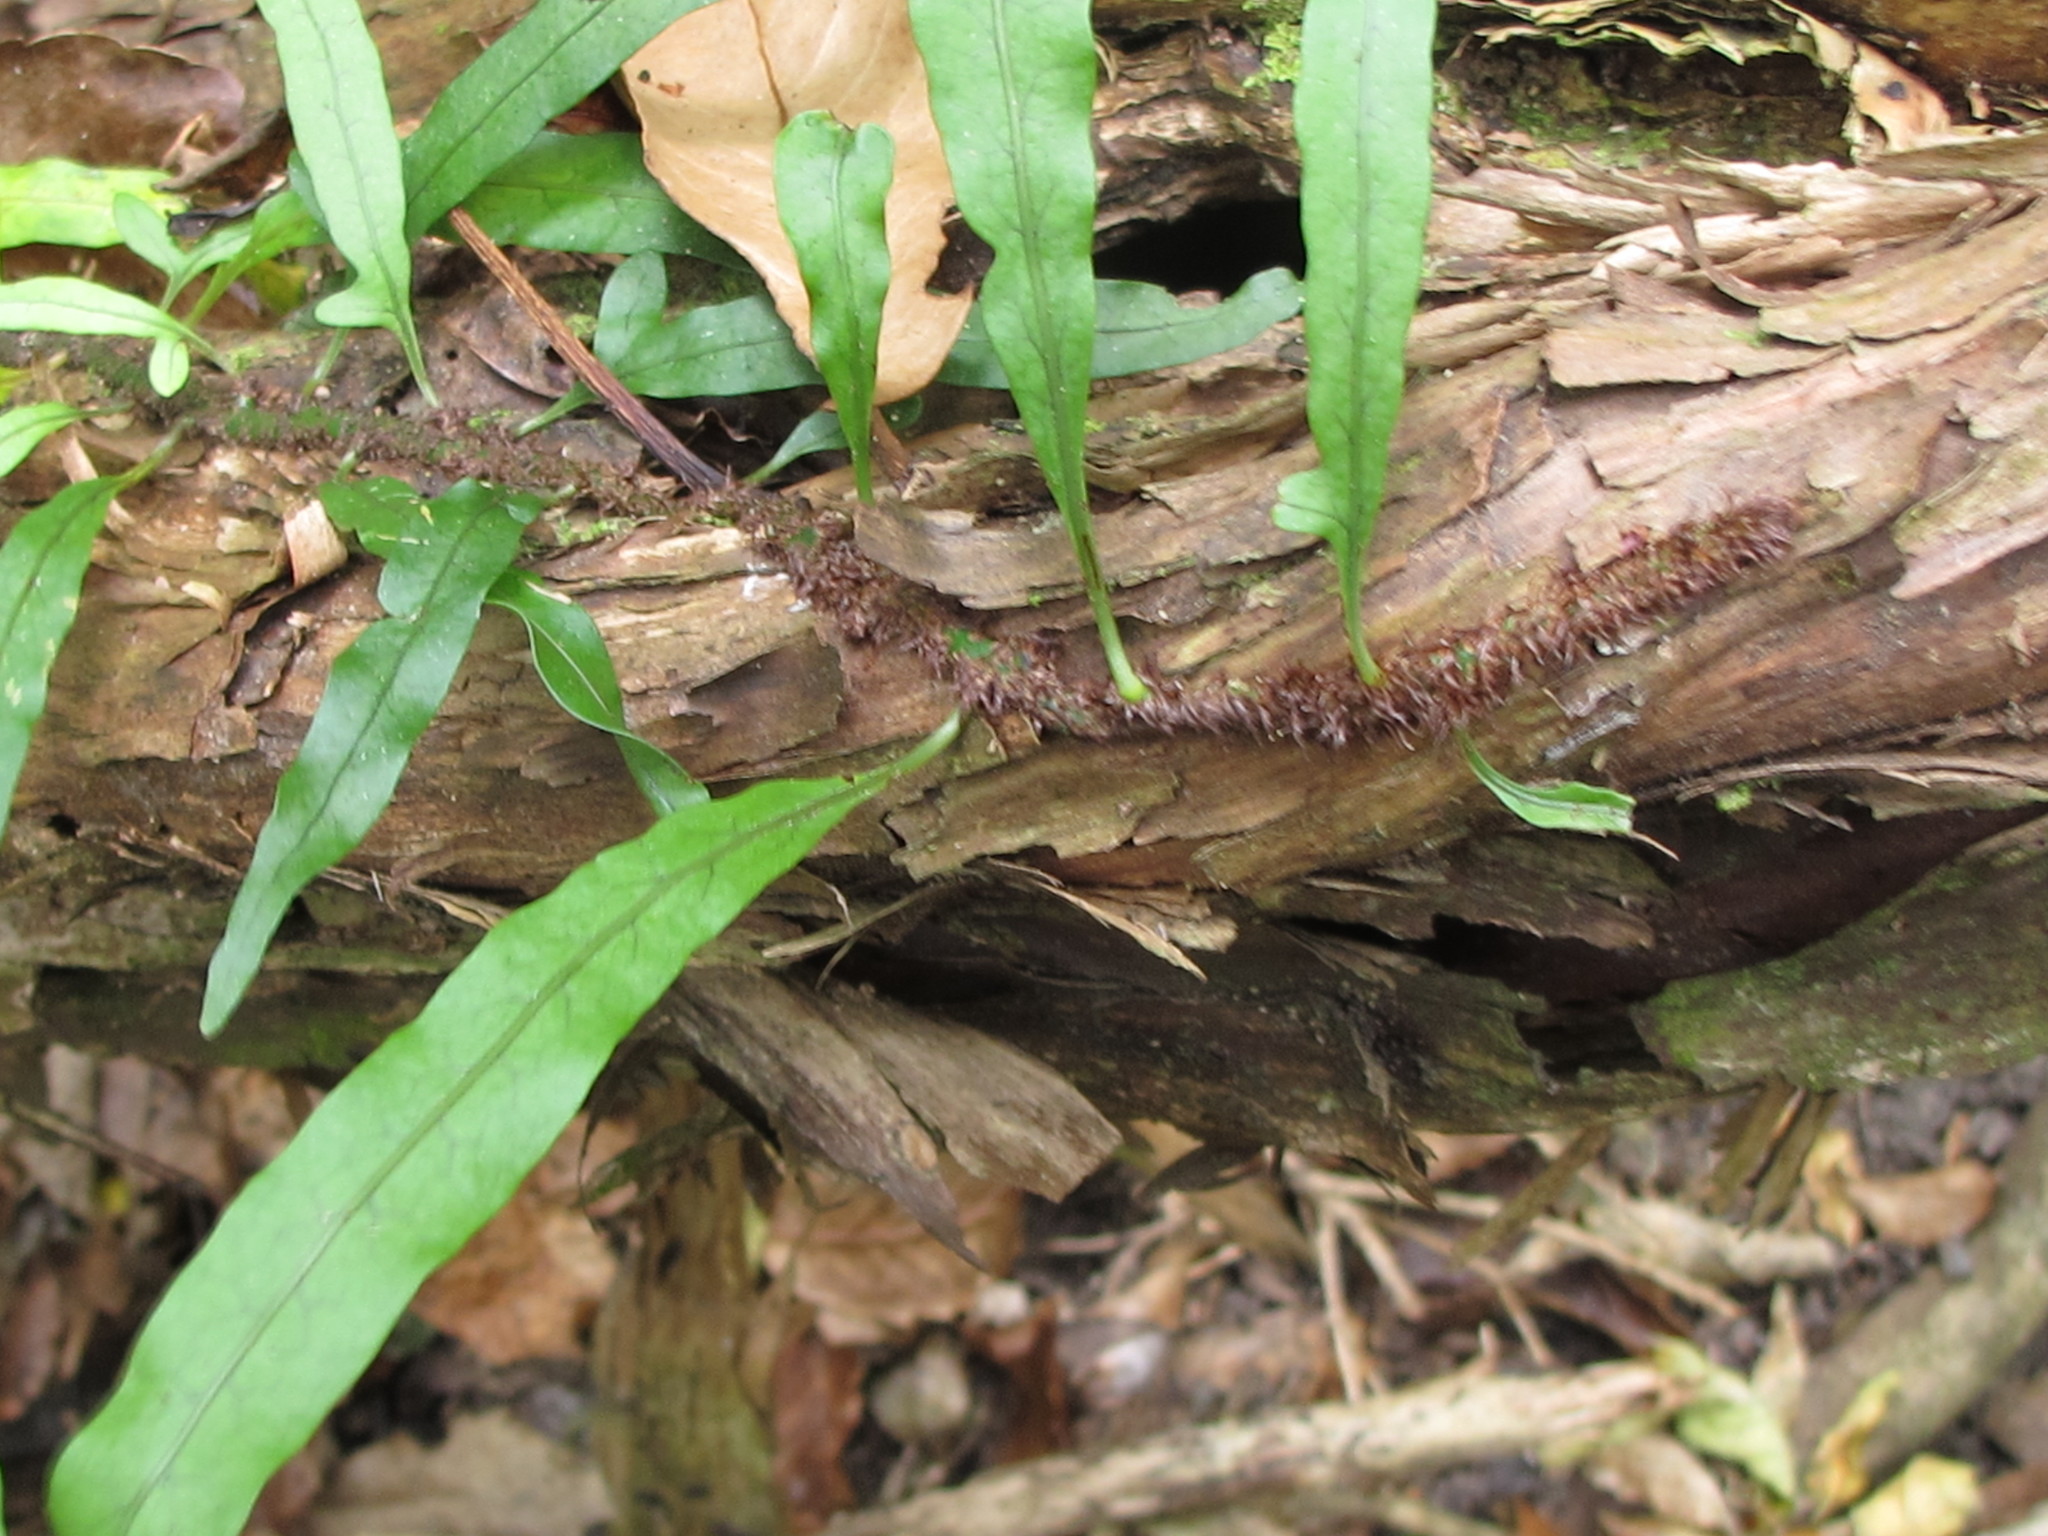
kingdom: Plantae
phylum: Tracheophyta
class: Polypodiopsida
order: Polypodiales
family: Polypodiaceae
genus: Lecanopteris
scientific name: Lecanopteris scandens
